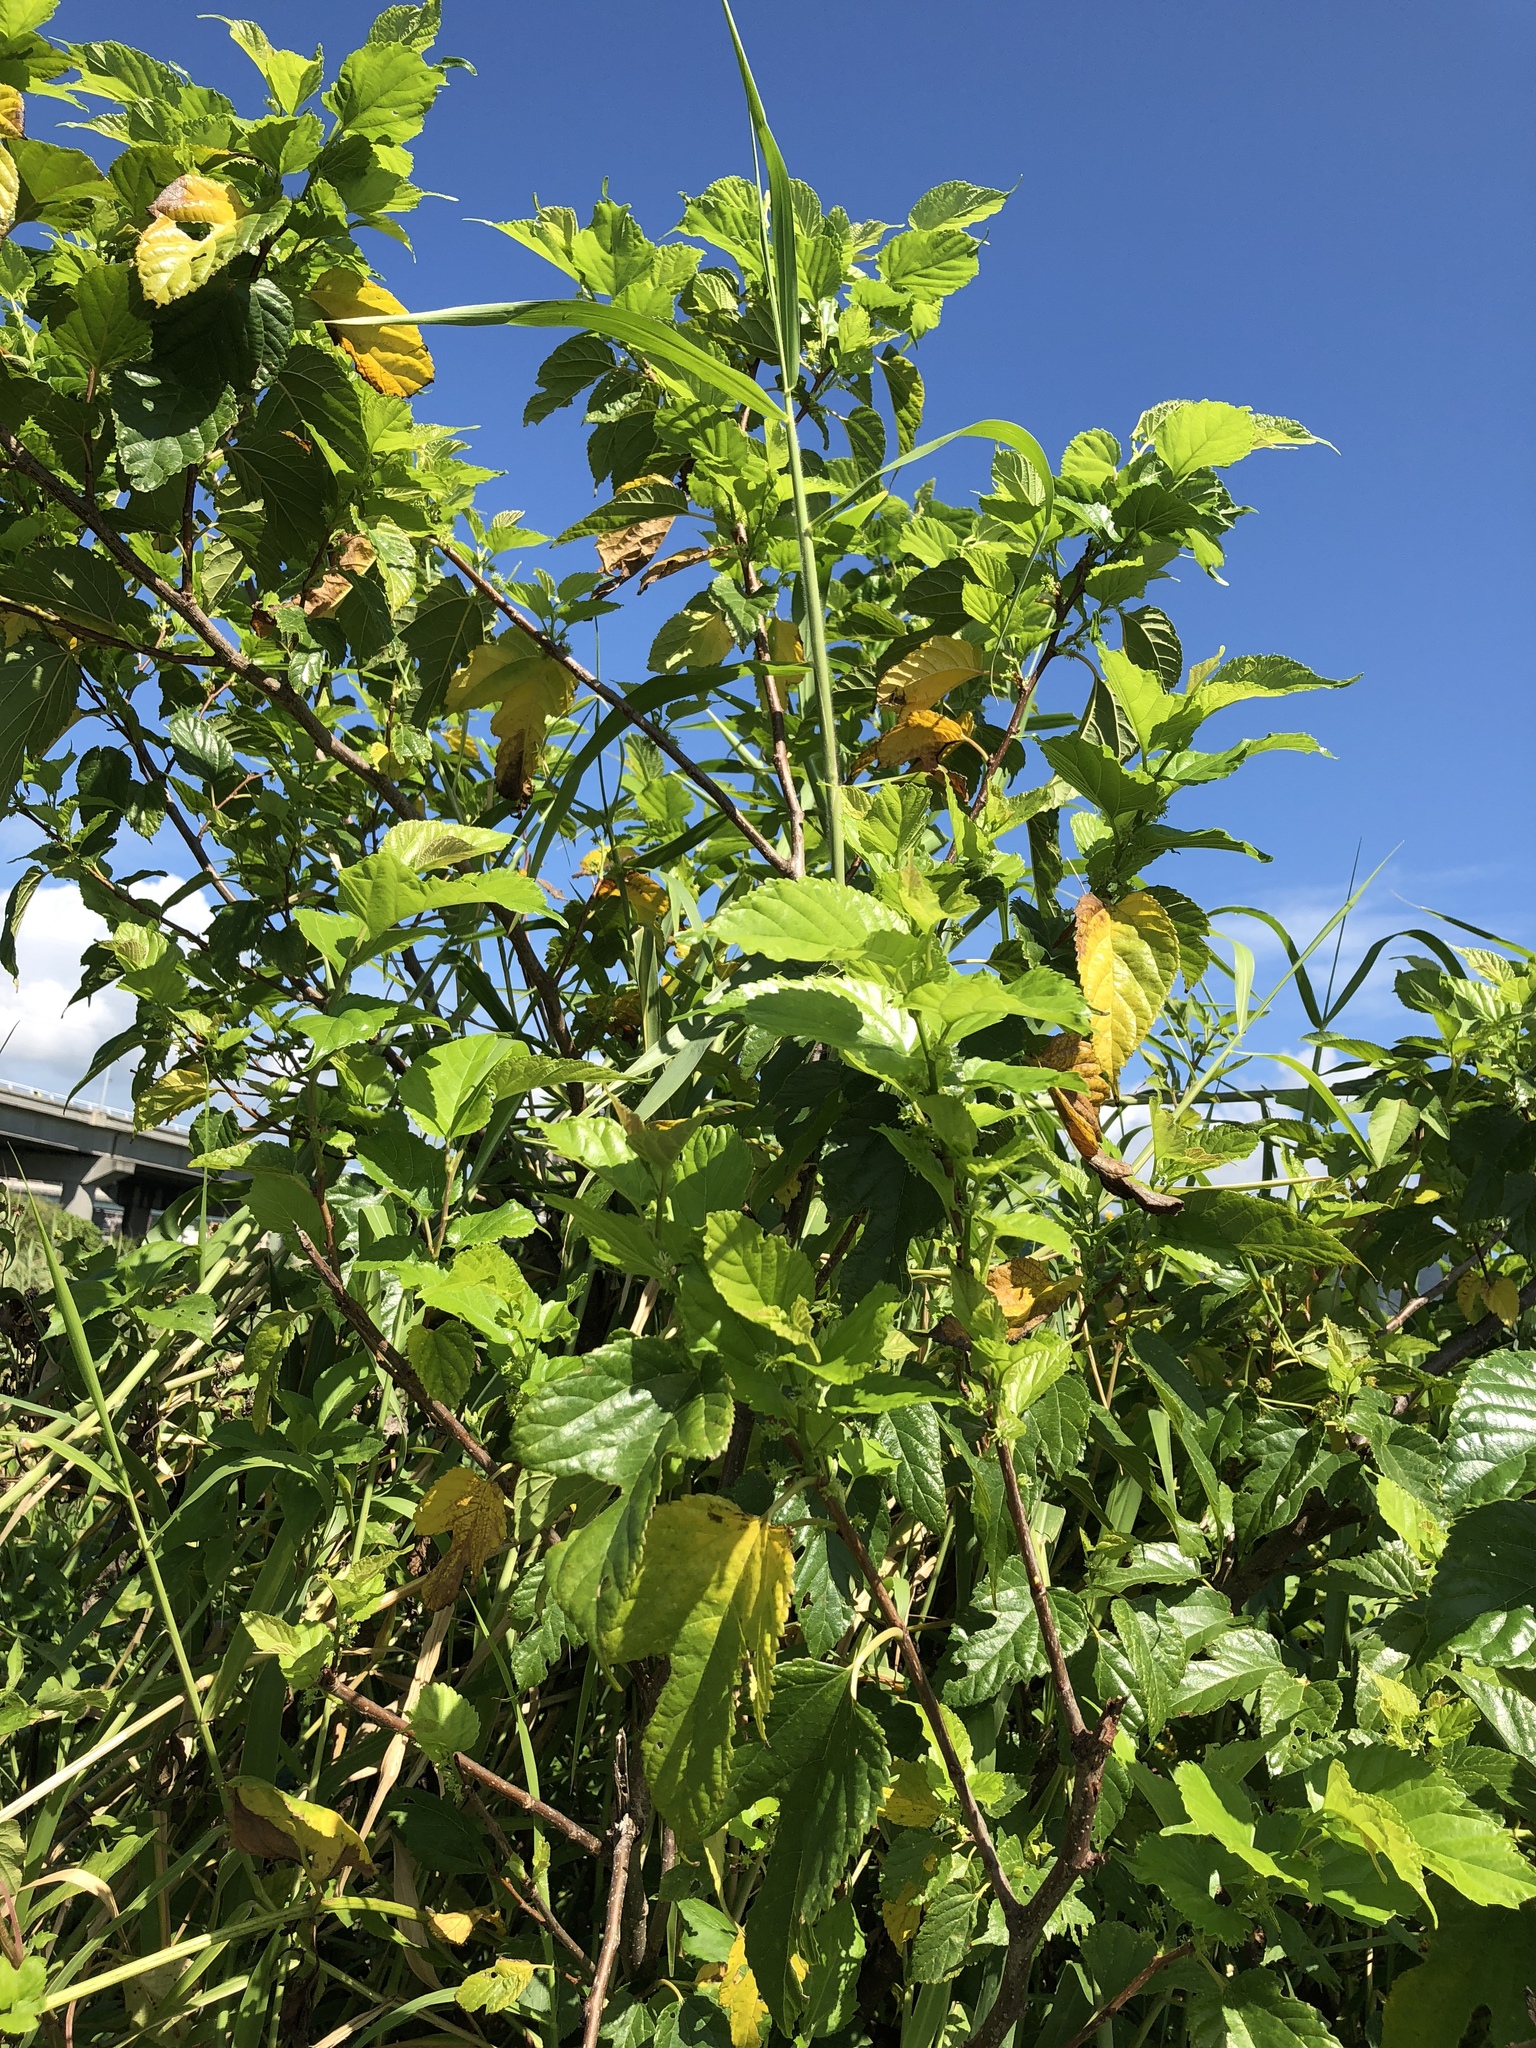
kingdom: Plantae
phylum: Tracheophyta
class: Magnoliopsida
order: Rosales
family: Moraceae
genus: Morus
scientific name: Morus indica
